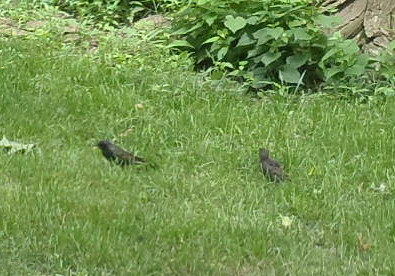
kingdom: Animalia
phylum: Chordata
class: Aves
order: Passeriformes
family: Sturnidae
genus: Sturnus
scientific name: Sturnus vulgaris
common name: Common starling
